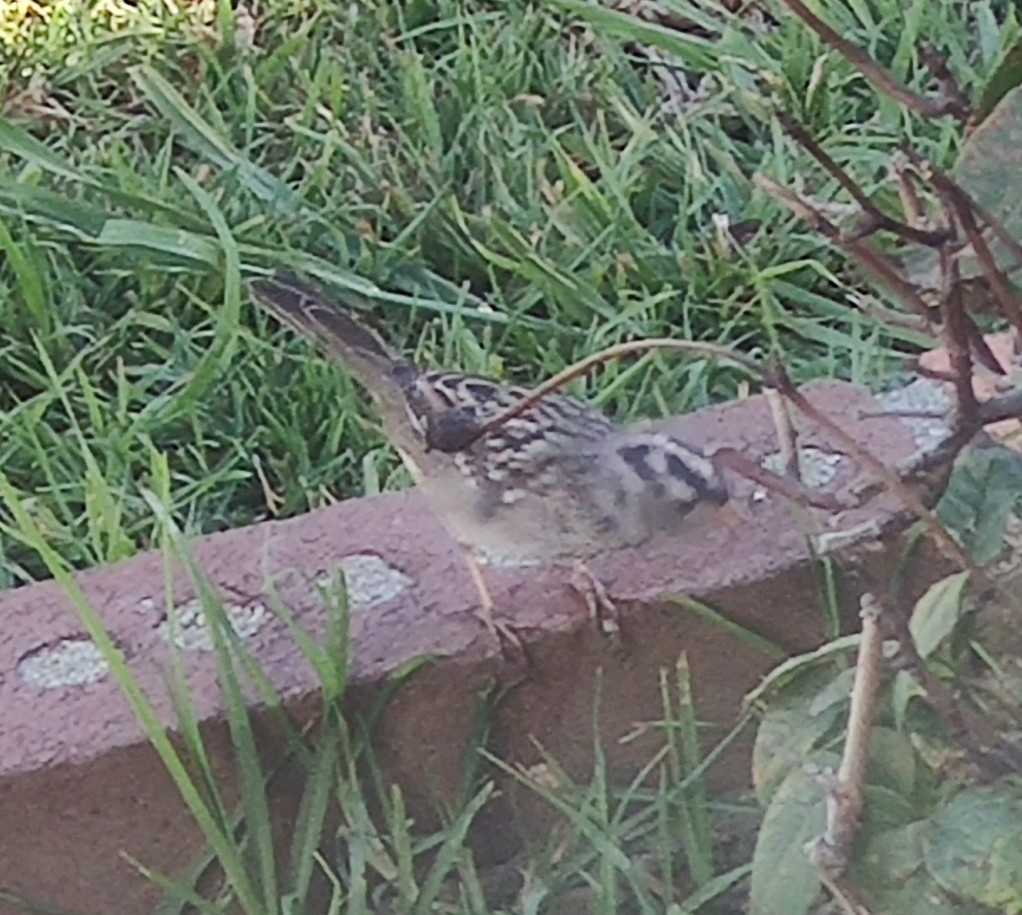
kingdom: Animalia
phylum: Chordata
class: Aves
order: Passeriformes
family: Passerellidae
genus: Zonotrichia
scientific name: Zonotrichia leucophrys
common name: White-crowned sparrow
